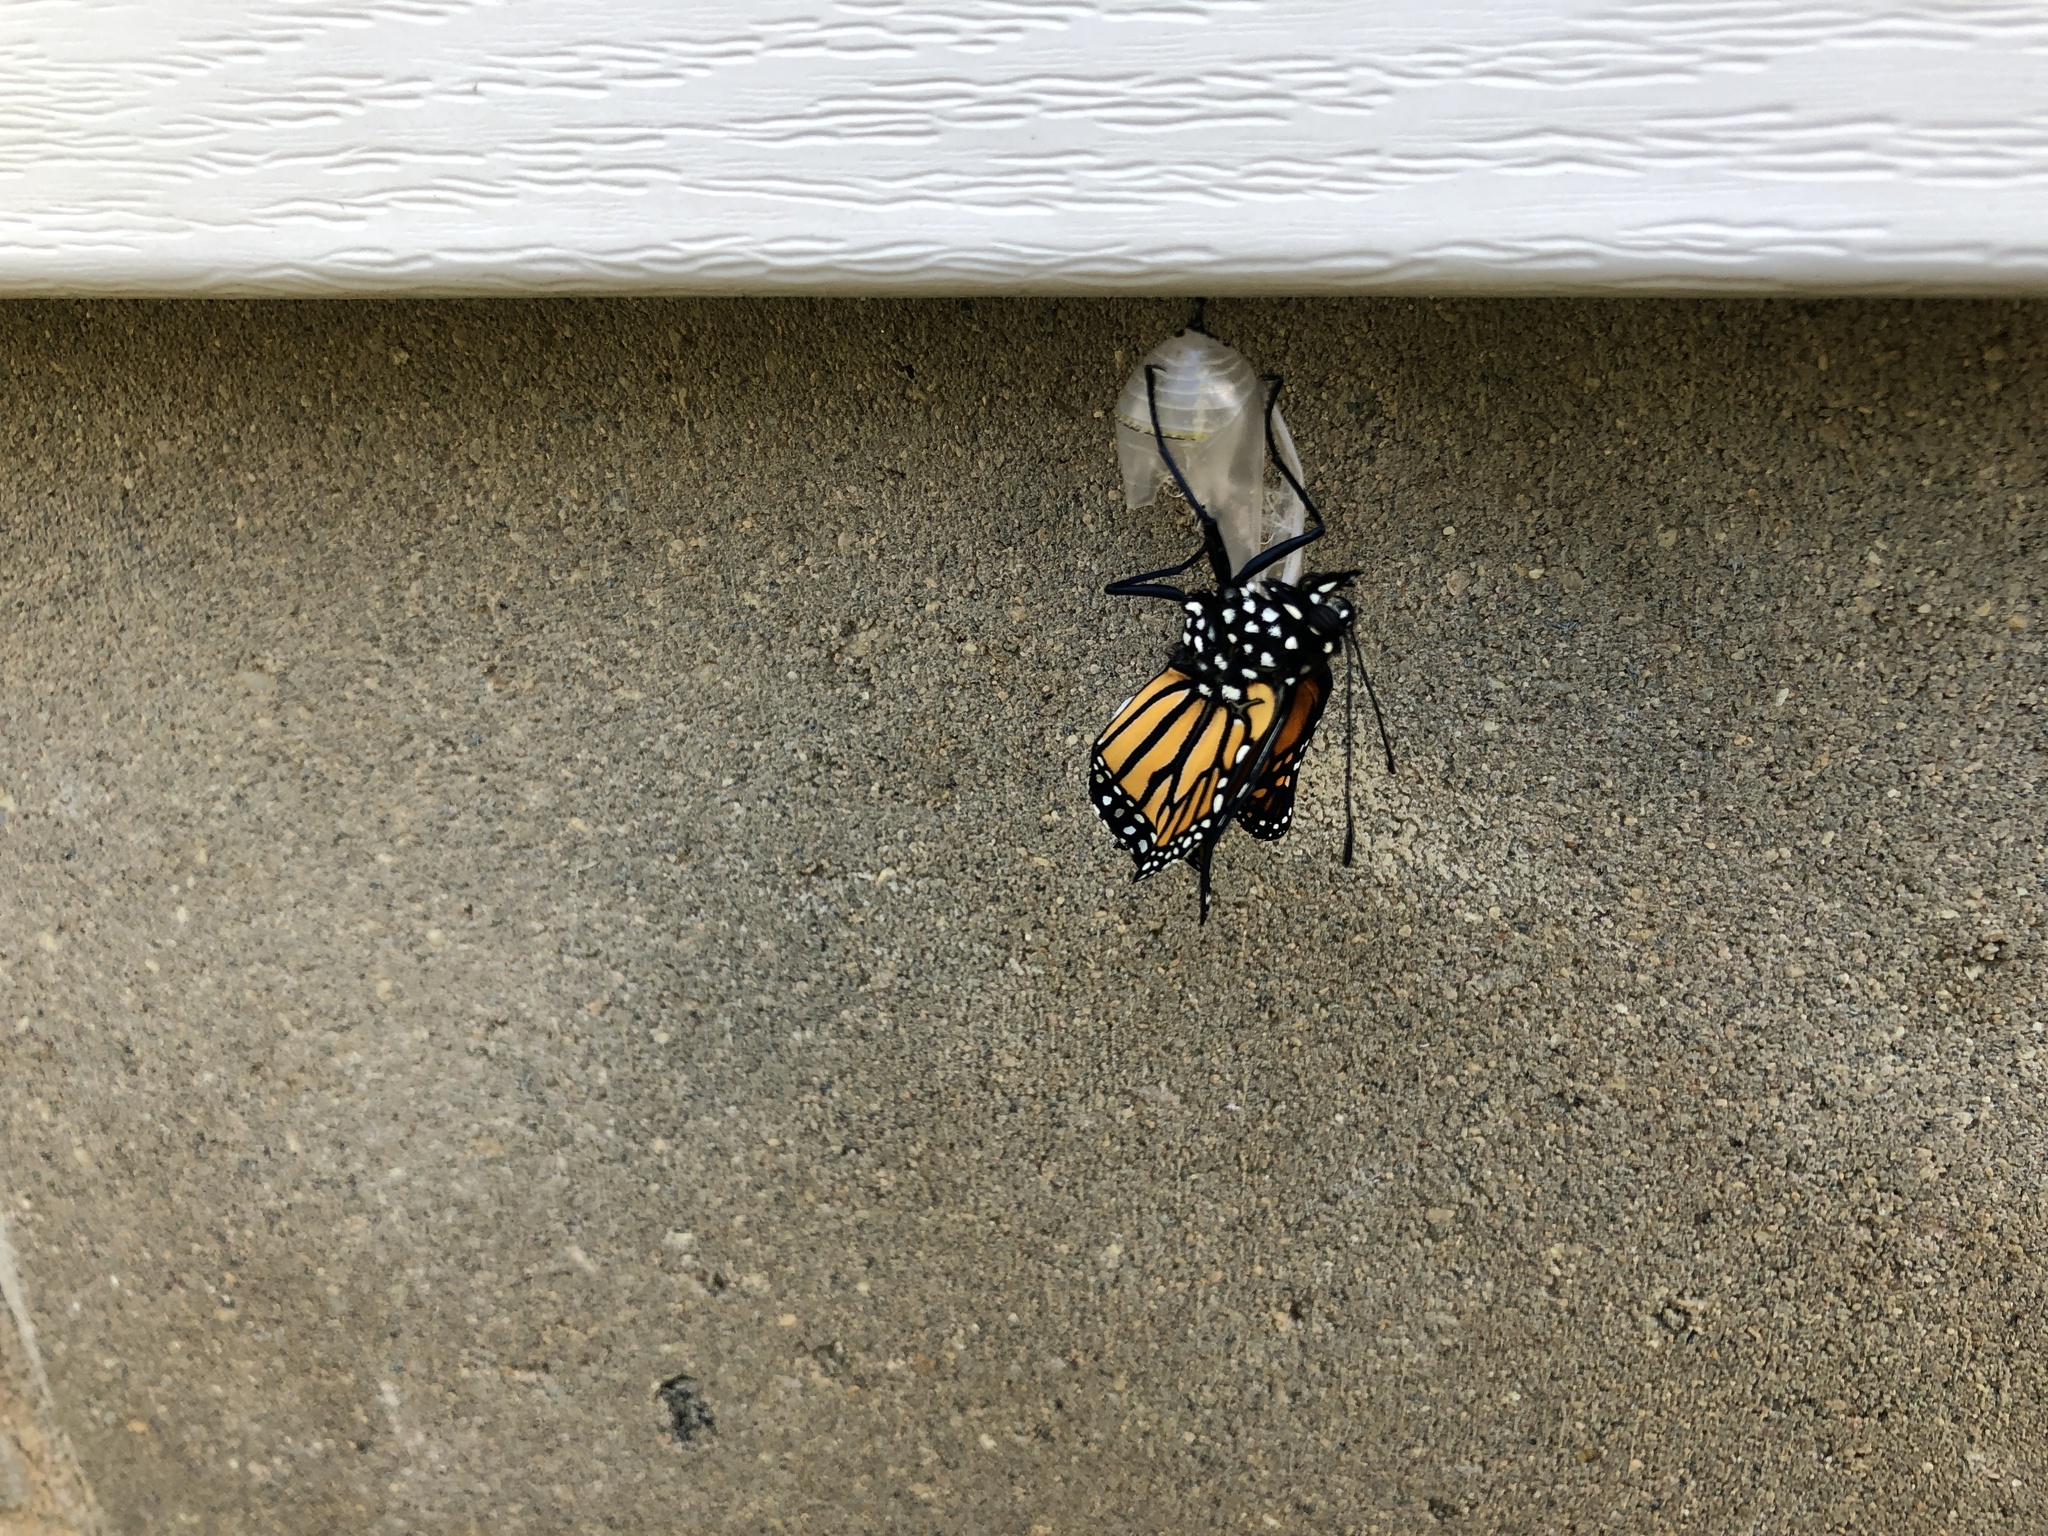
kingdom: Animalia
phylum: Arthropoda
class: Insecta
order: Lepidoptera
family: Nymphalidae
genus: Danaus
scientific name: Danaus plexippus
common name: Monarch
